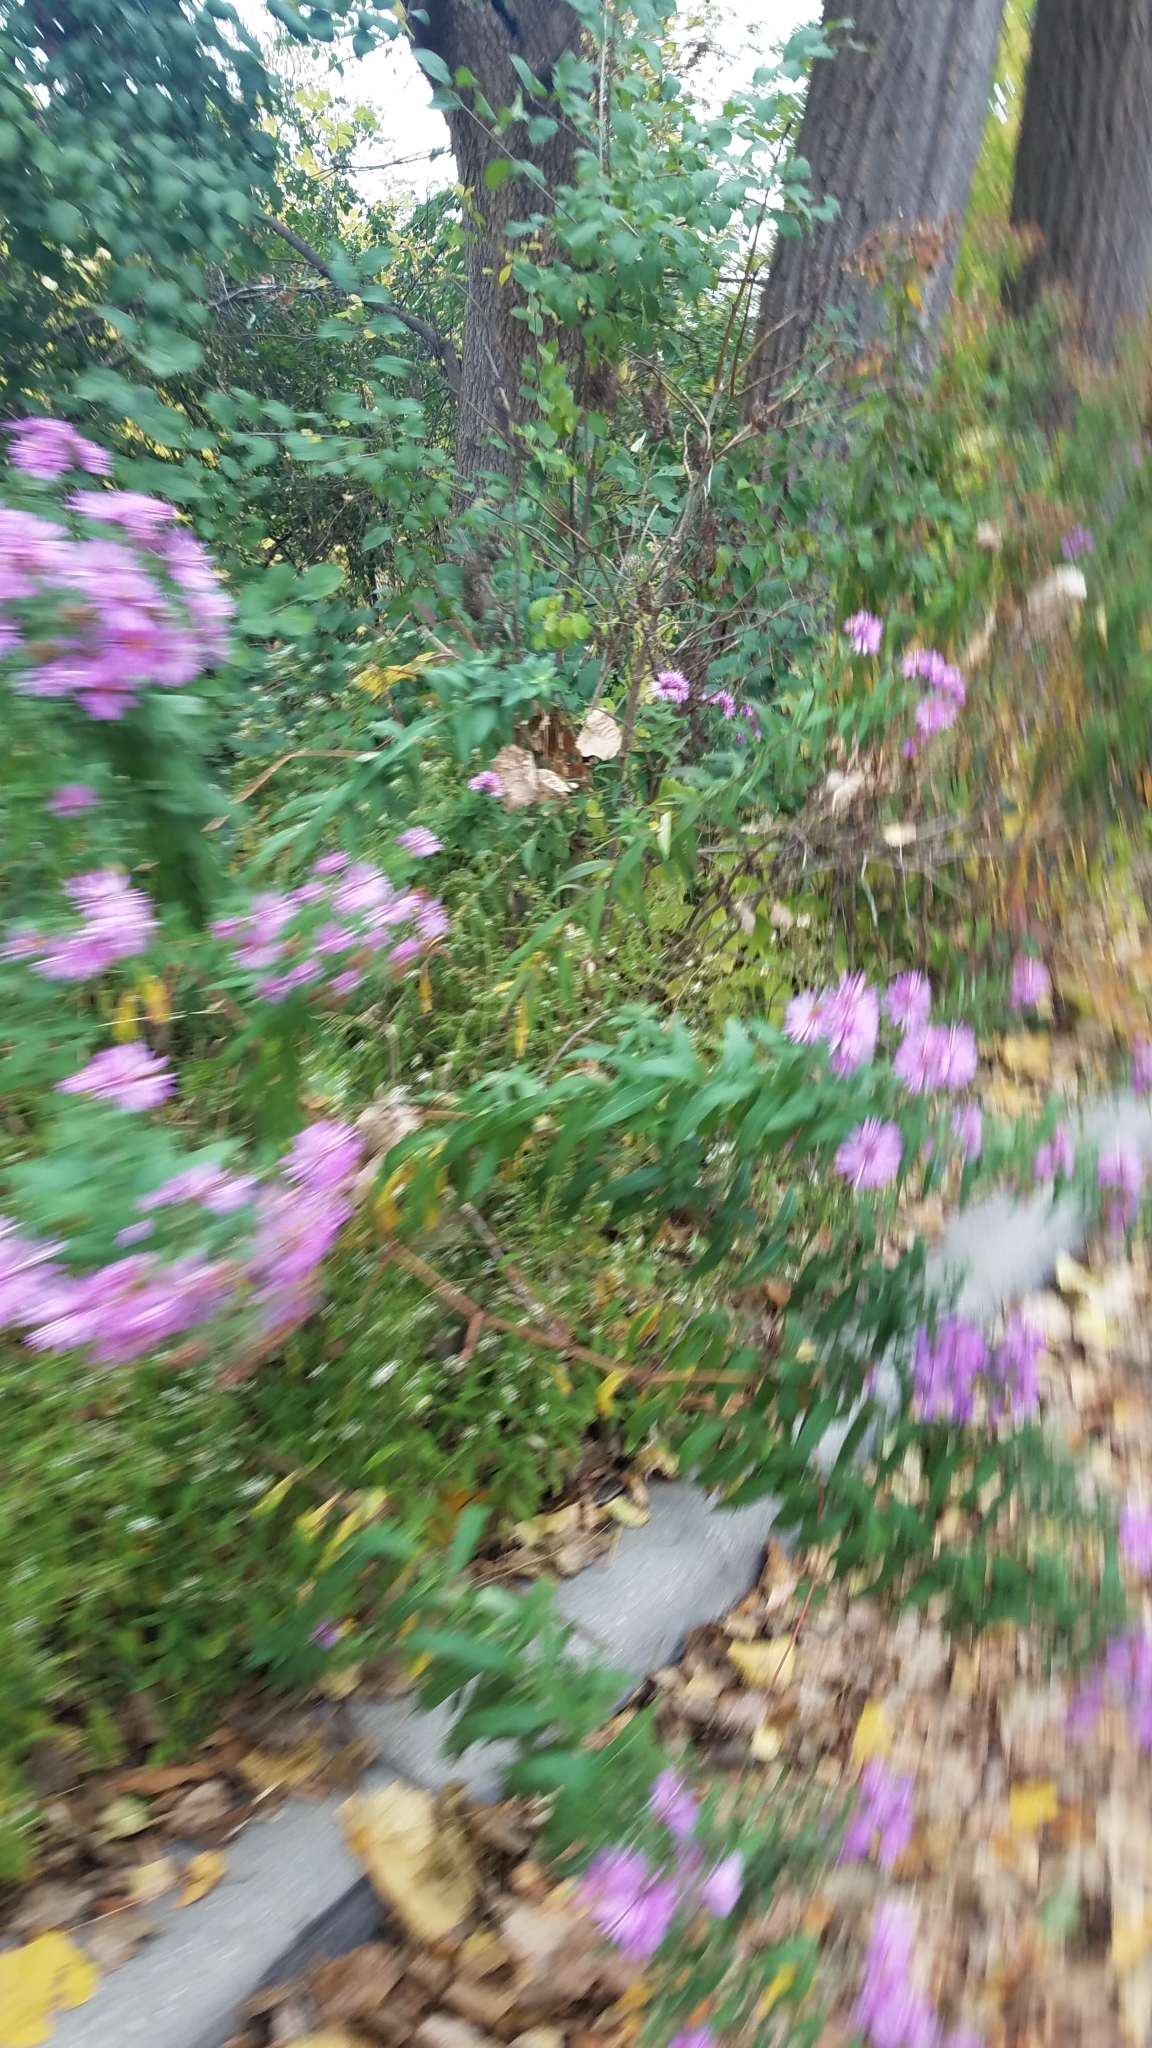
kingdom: Plantae
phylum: Tracheophyta
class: Magnoliopsida
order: Asterales
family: Asteraceae
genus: Symphyotrichum
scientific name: Symphyotrichum novae-angliae
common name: Michaelmas daisy
